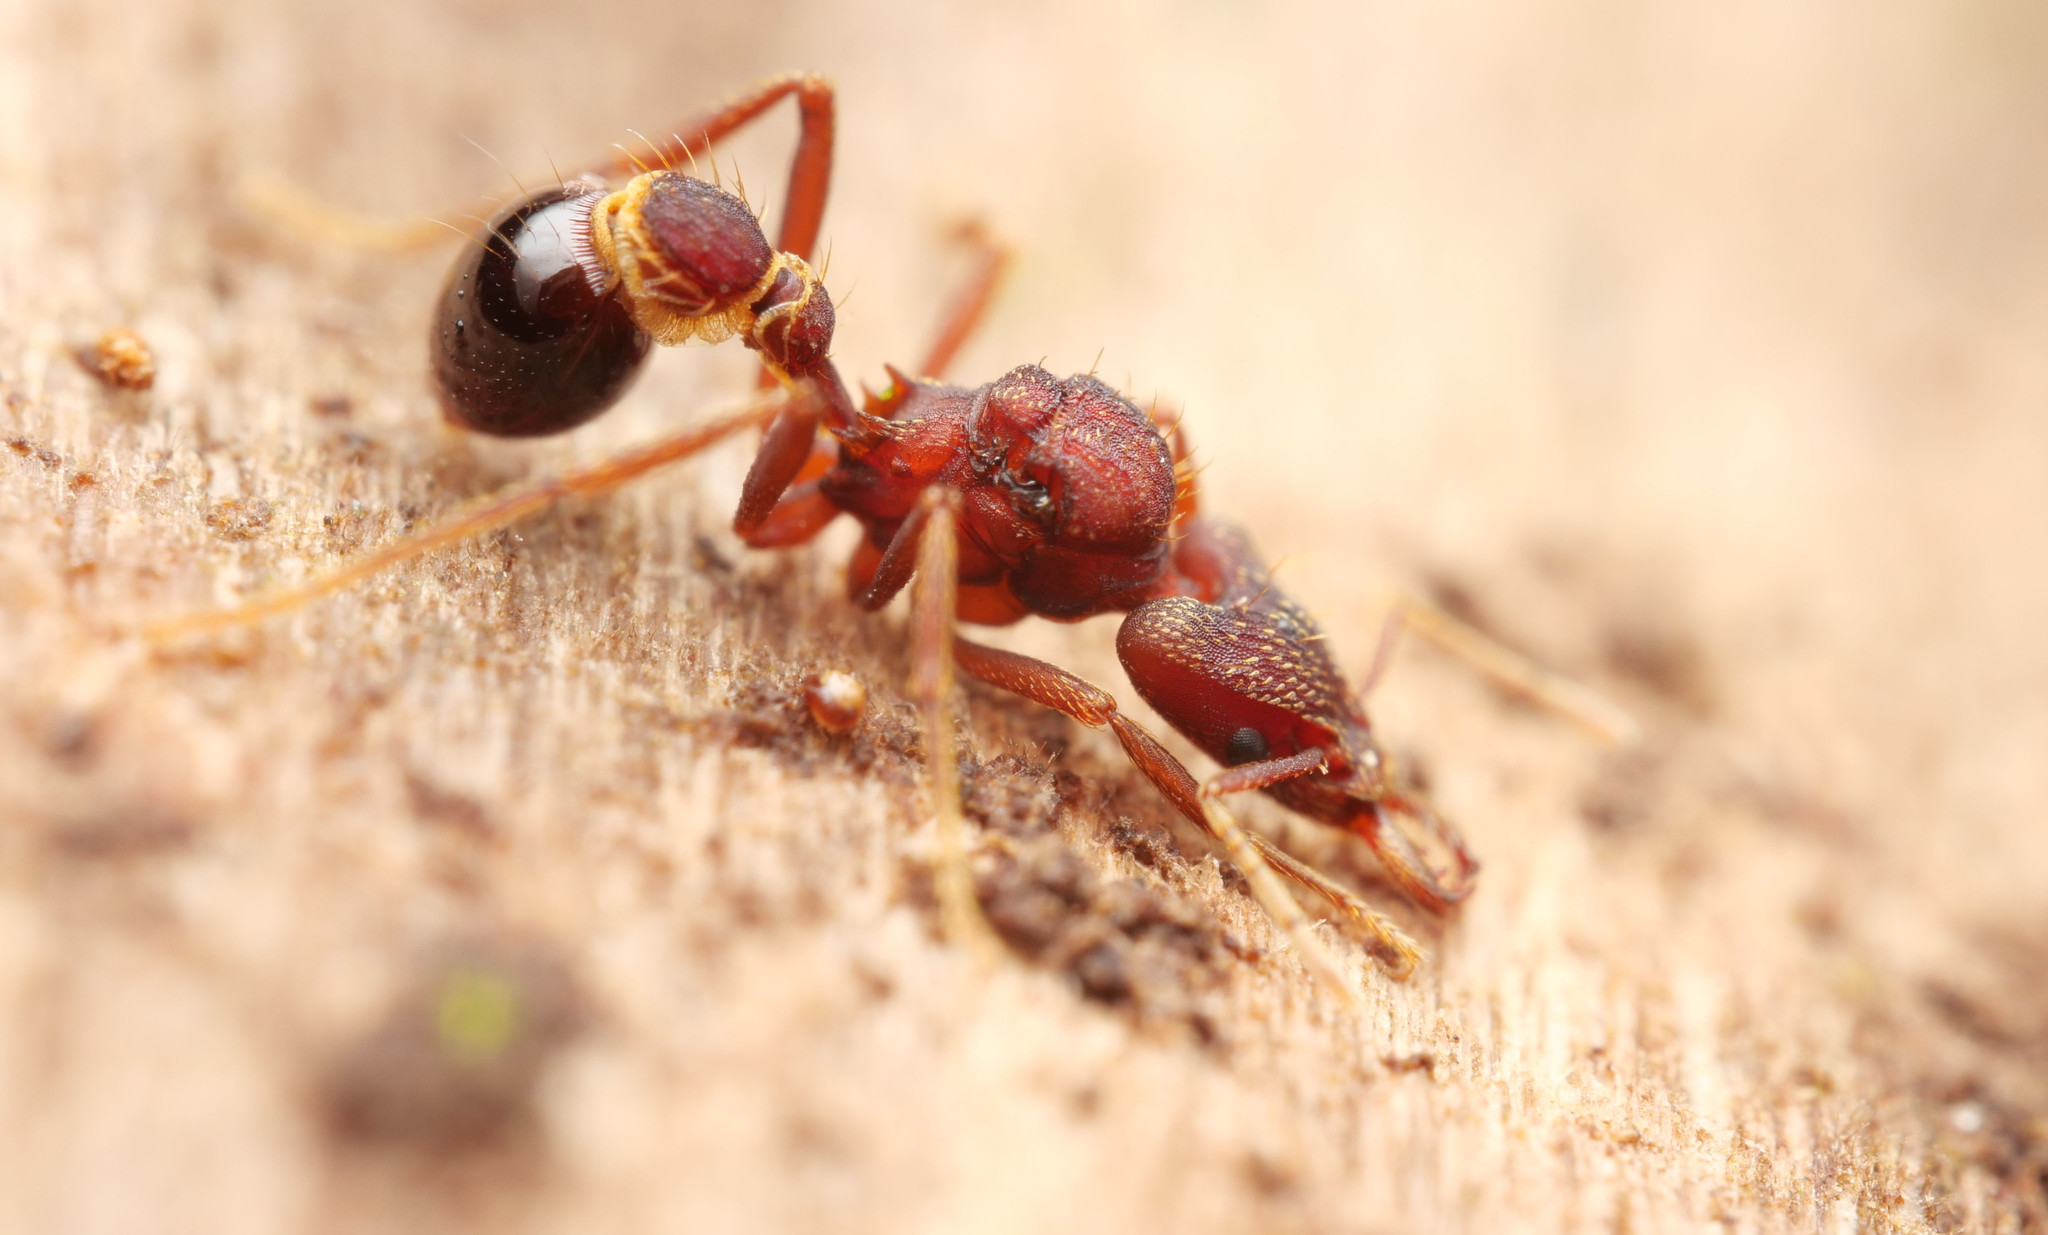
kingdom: Animalia
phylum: Arthropoda
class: Insecta
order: Hymenoptera
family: Formicidae
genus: Strumigenys
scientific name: Strumigenys godmani
